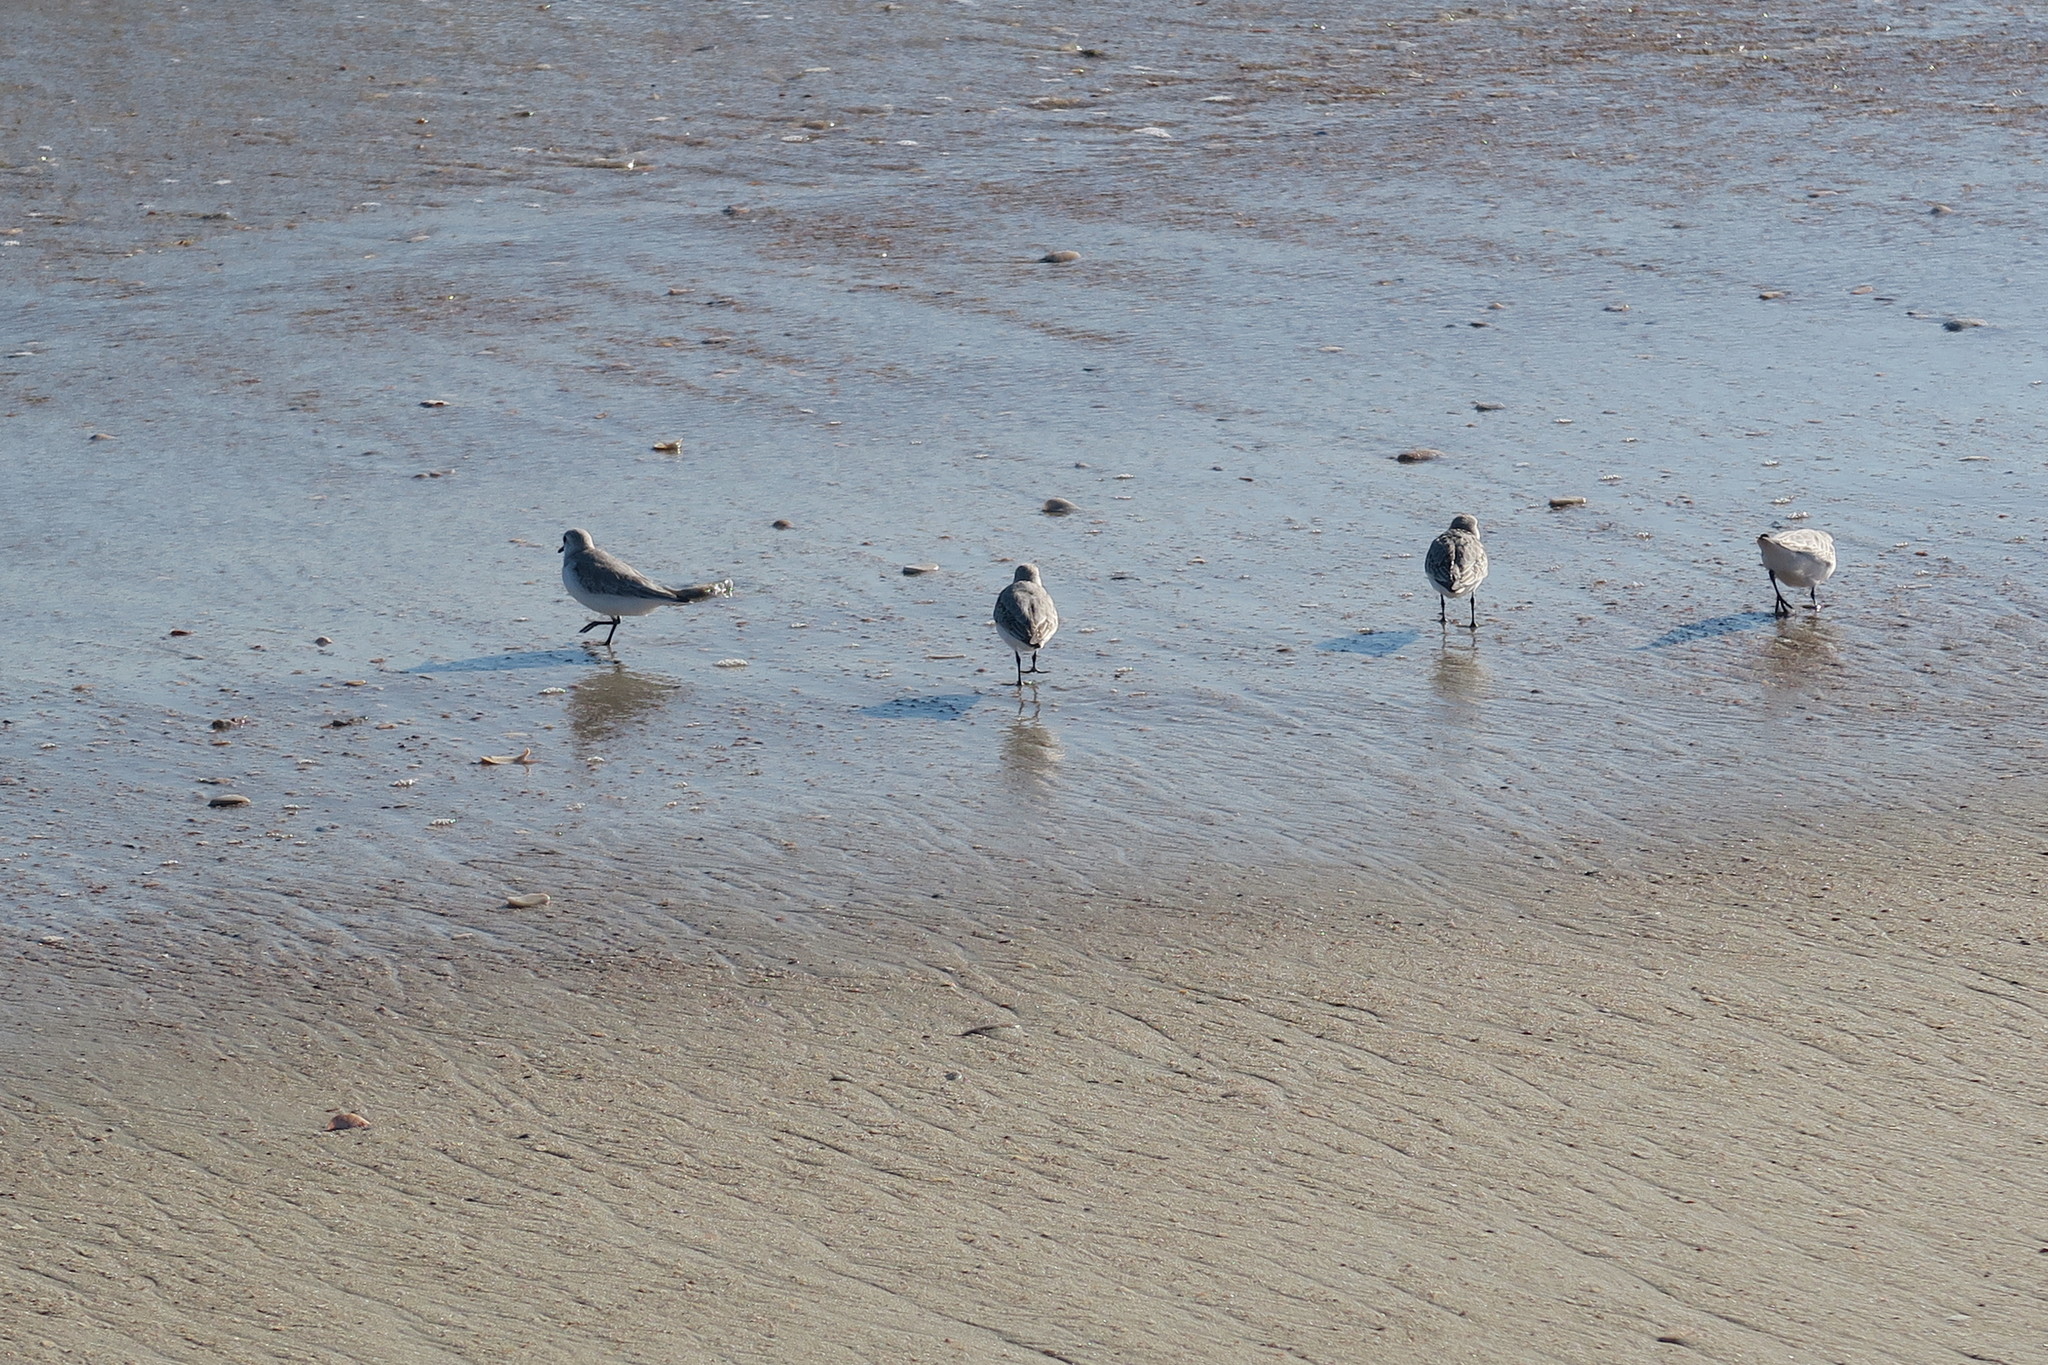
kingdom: Animalia
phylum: Chordata
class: Aves
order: Charadriiformes
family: Scolopacidae
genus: Calidris
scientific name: Calidris alba
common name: Sanderling
